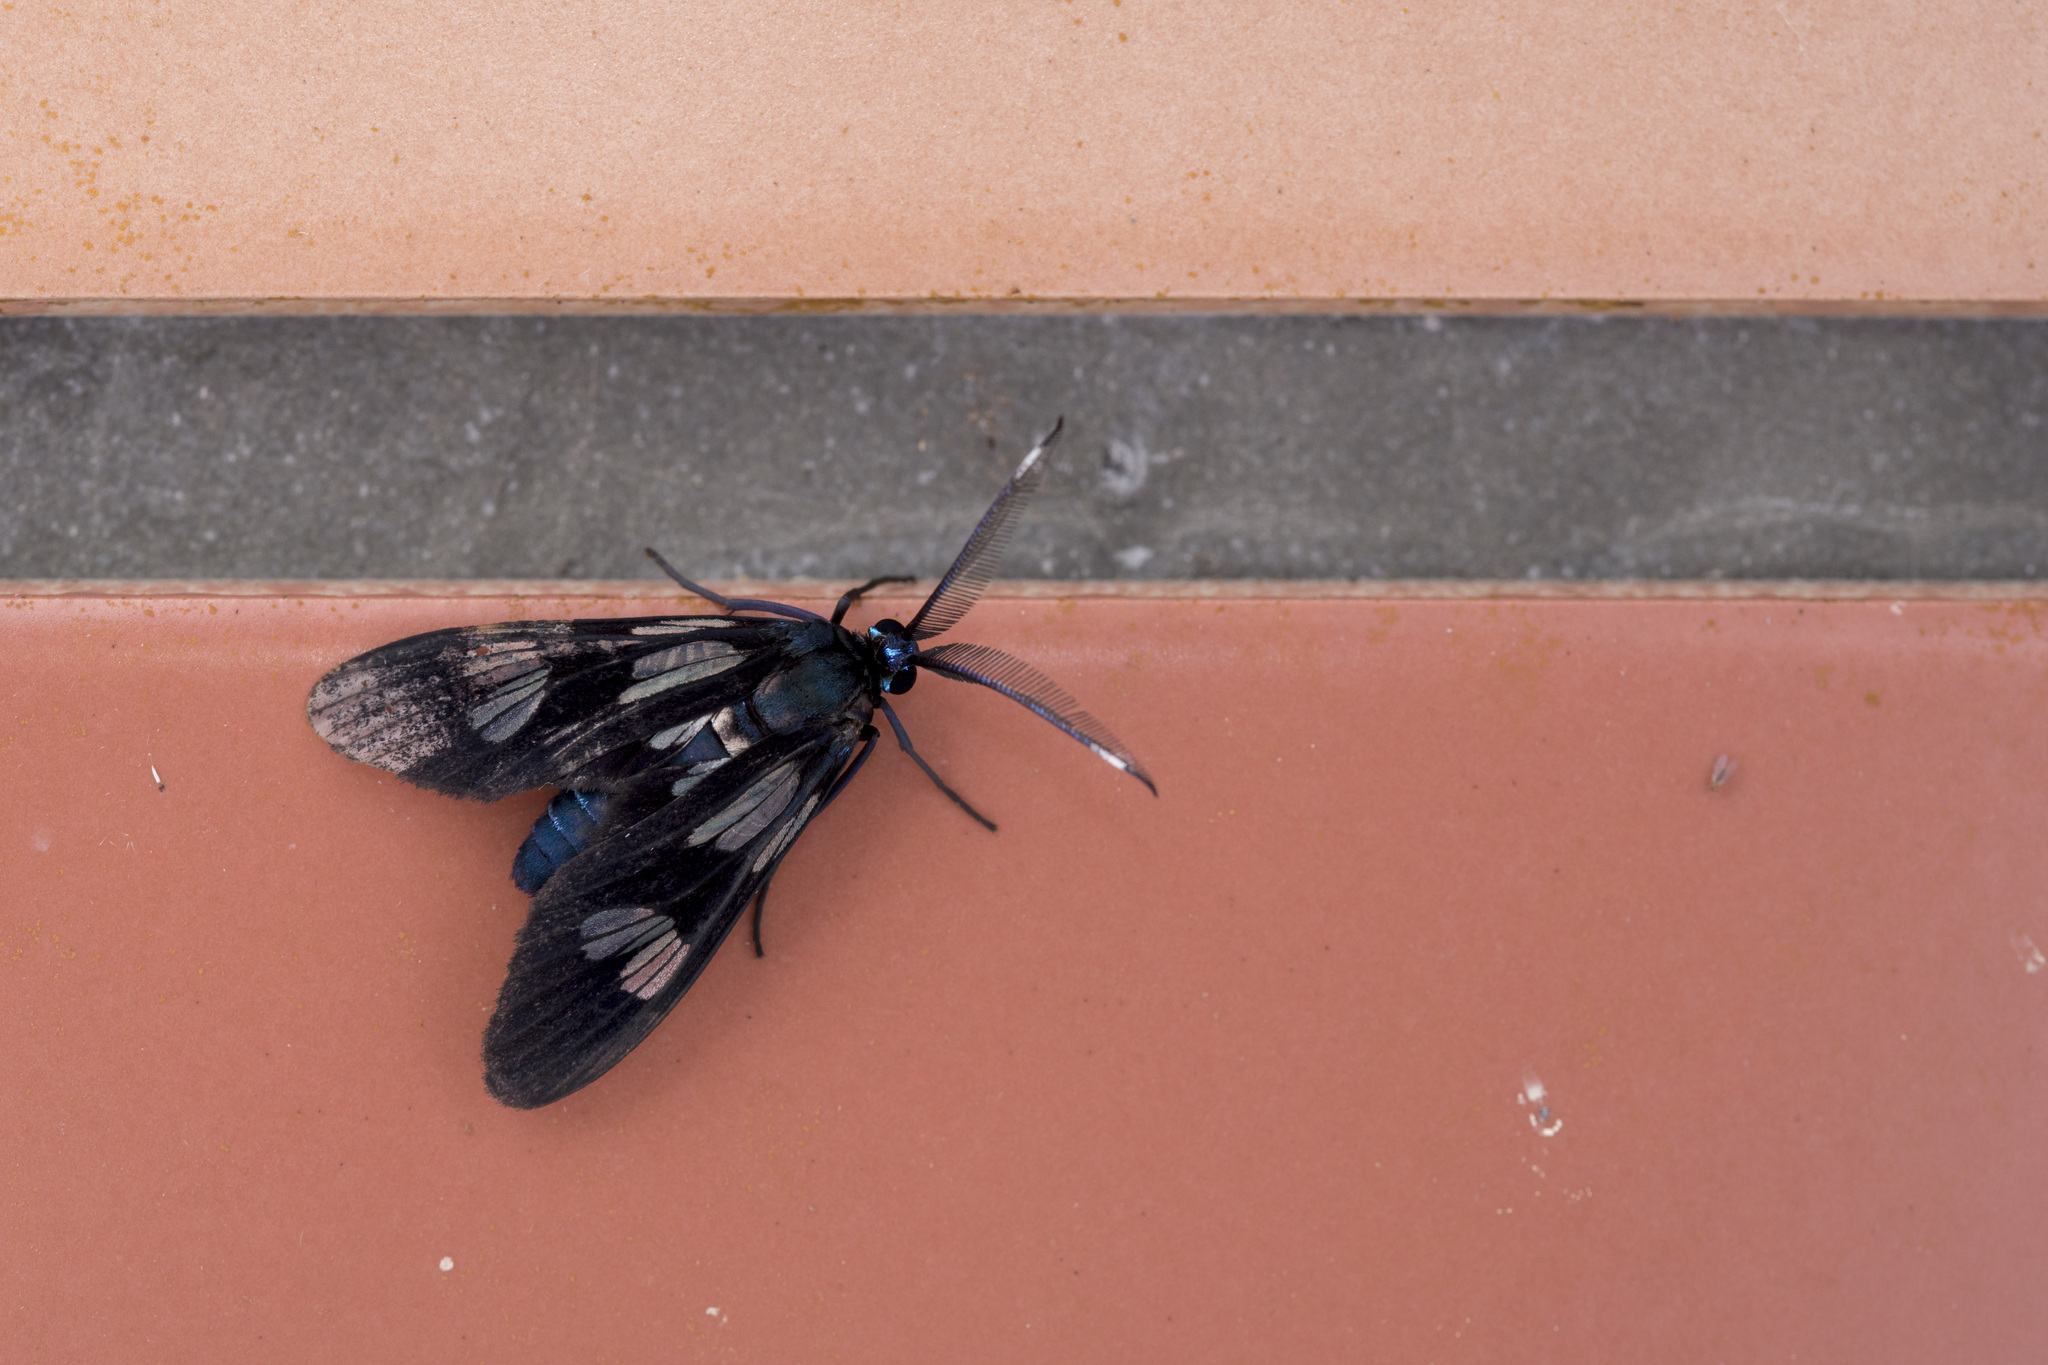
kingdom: Animalia
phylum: Arthropoda
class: Insecta
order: Lepidoptera
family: Zygaenidae
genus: Piarosoma
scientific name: Piarosoma fushan
